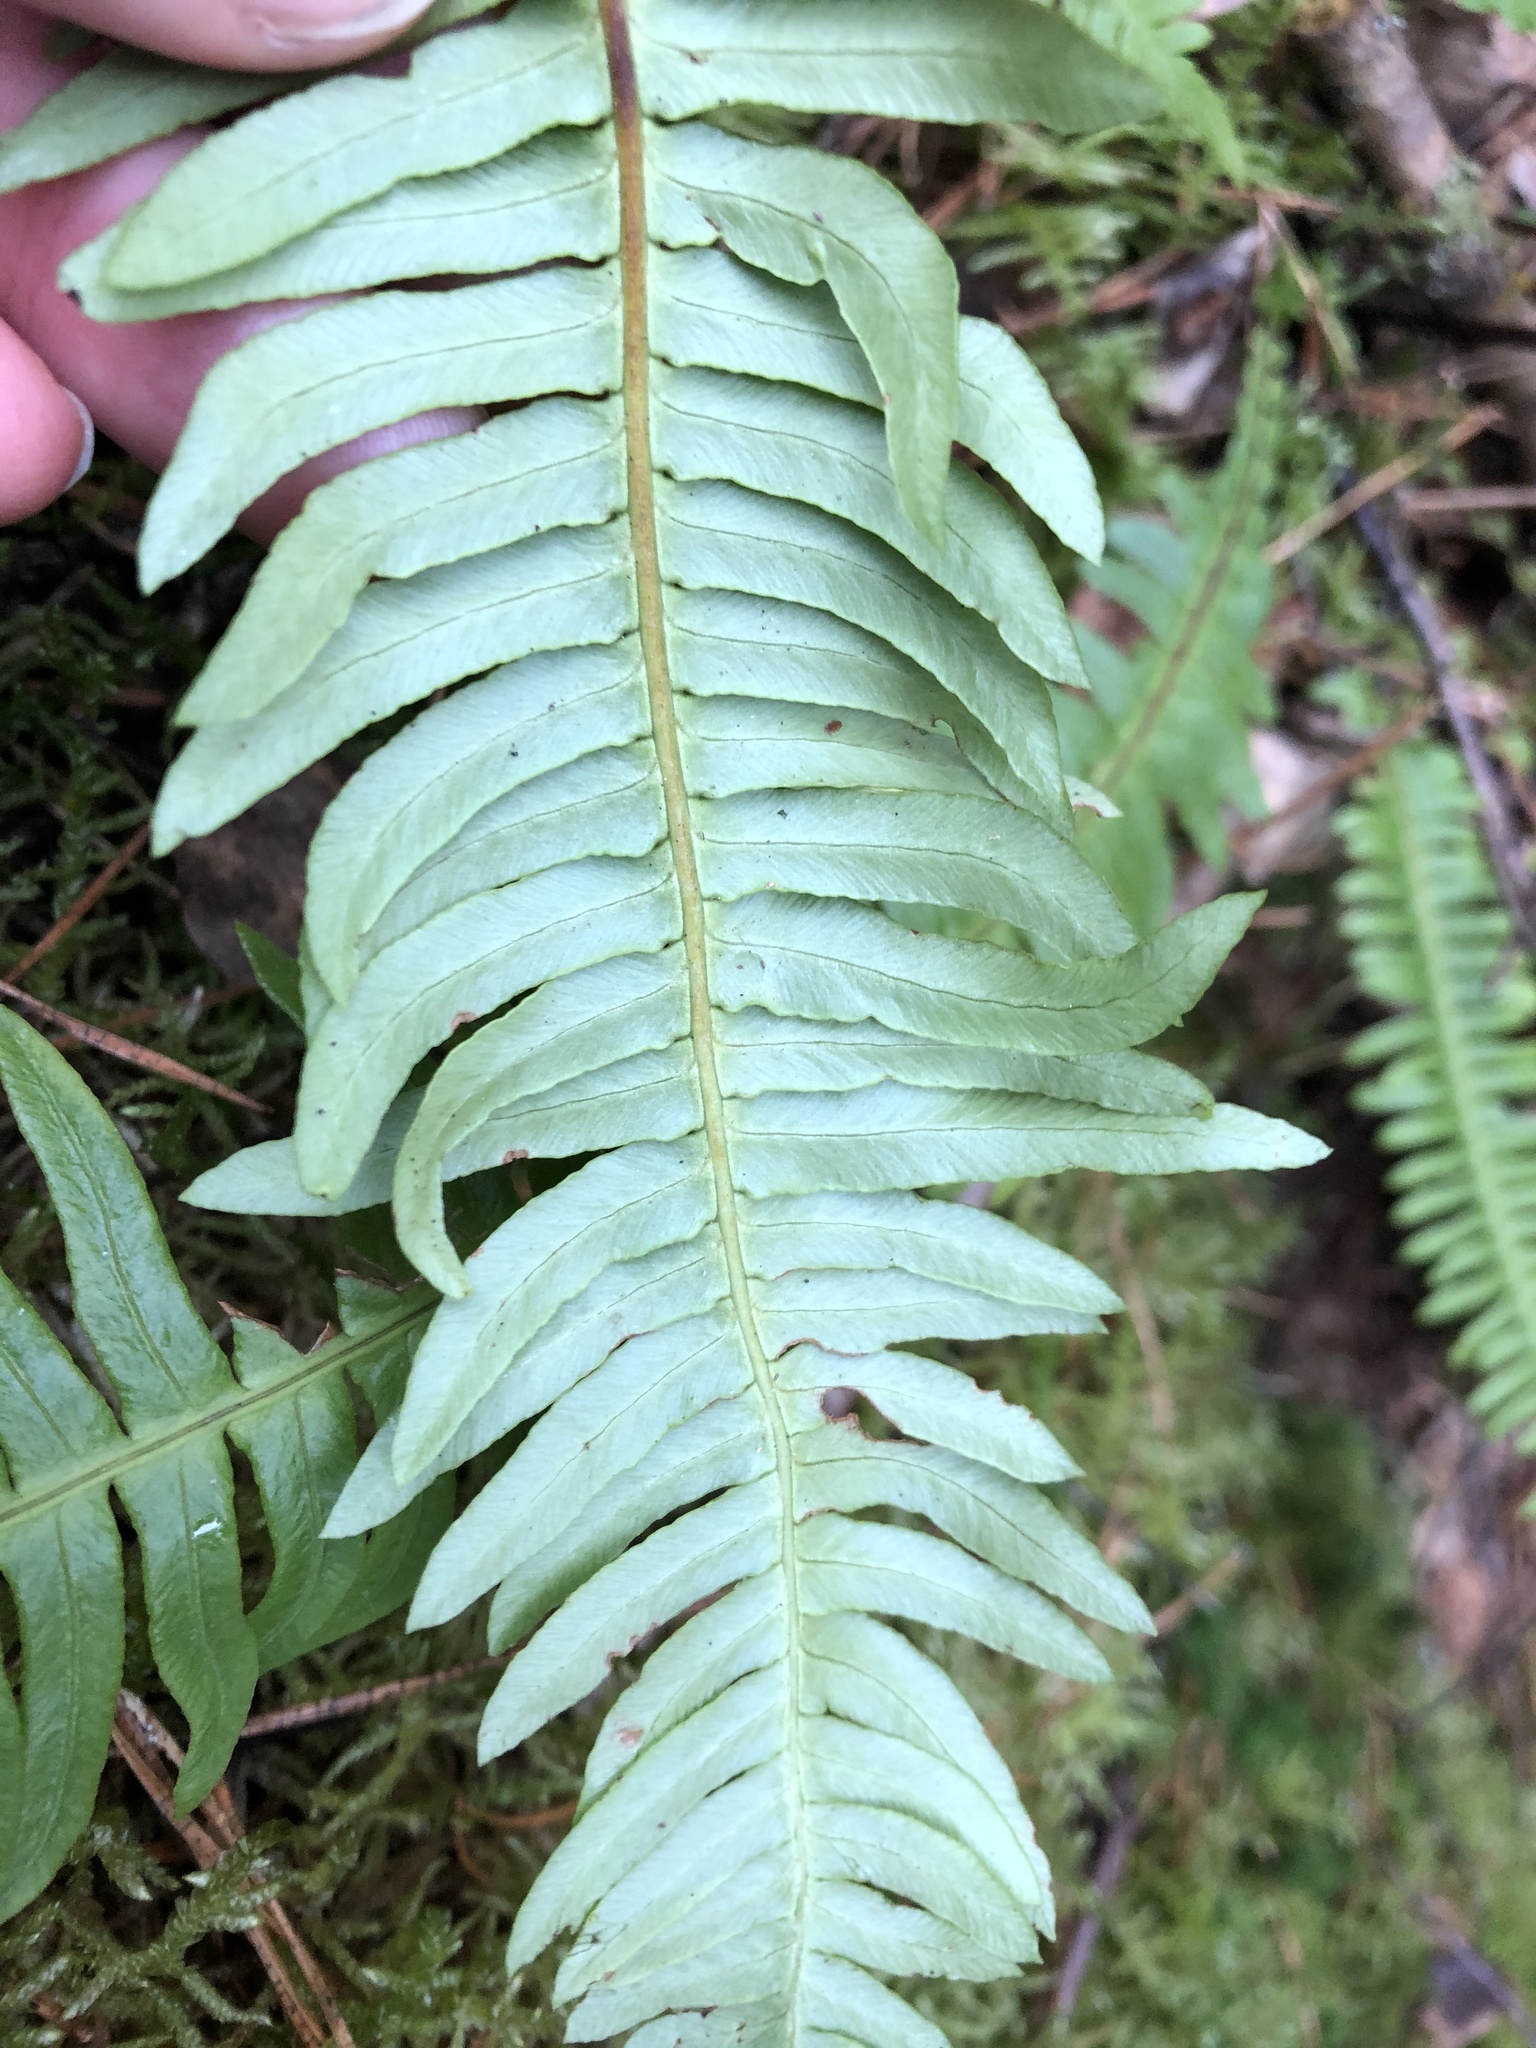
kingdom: Plantae
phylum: Tracheophyta
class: Polypodiopsida
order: Polypodiales
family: Blechnaceae
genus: Struthiopteris
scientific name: Struthiopteris spicant
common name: Deer fern
